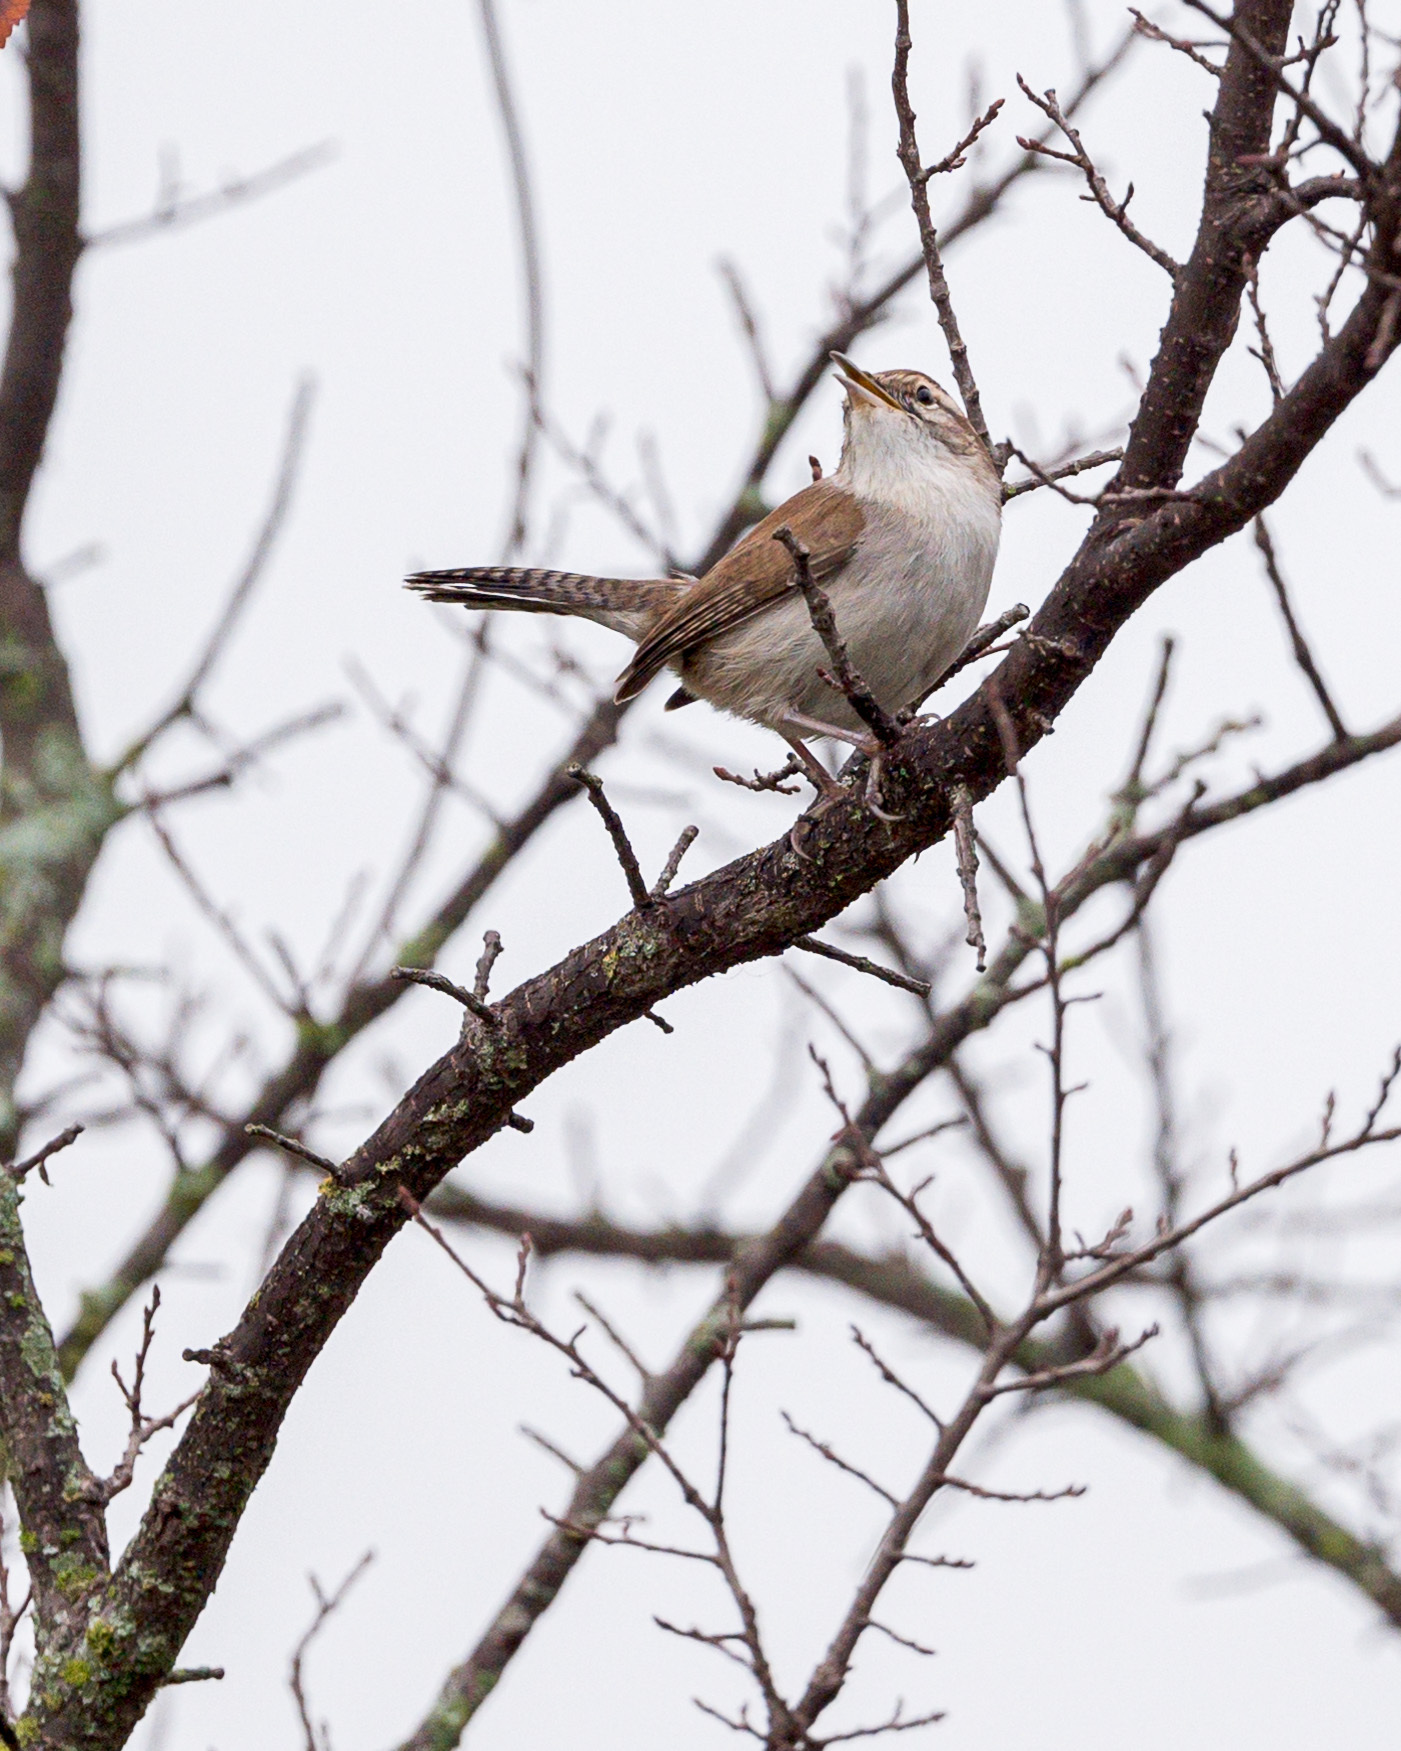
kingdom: Animalia
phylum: Chordata
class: Aves
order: Passeriformes
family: Troglodytidae
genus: Thryomanes
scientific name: Thryomanes bewickii
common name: Bewick's wren
